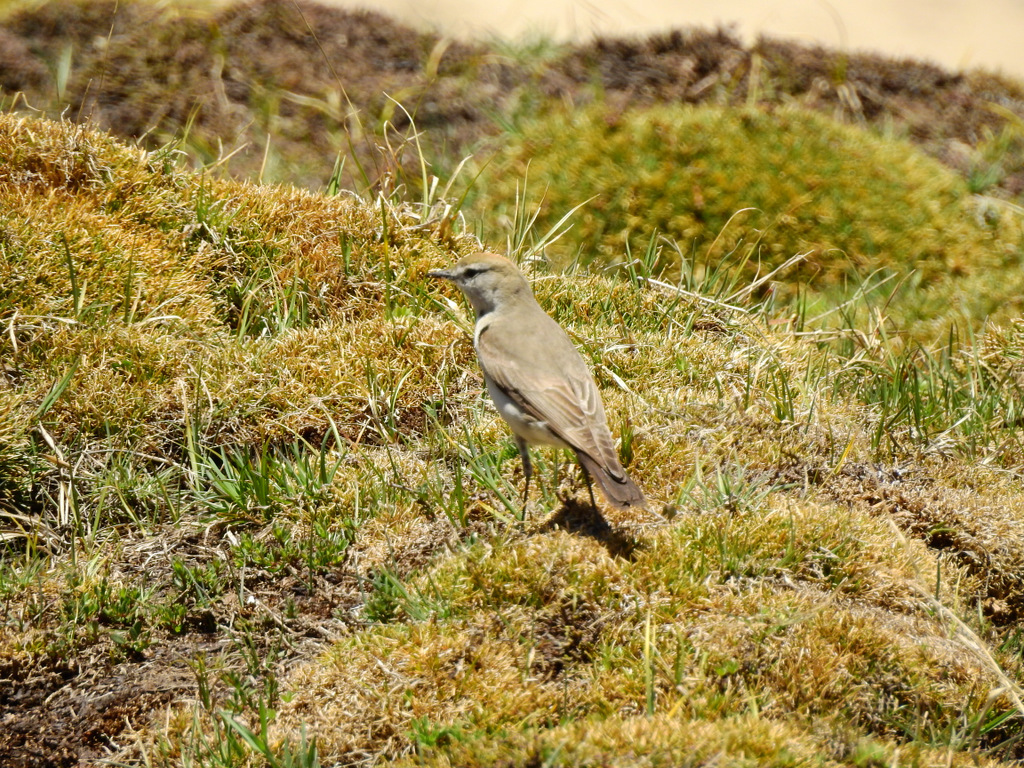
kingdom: Animalia
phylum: Chordata
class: Aves
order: Passeriformes
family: Tyrannidae
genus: Muscisaxicola
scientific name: Muscisaxicola albilora
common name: White-browed ground tyrant
